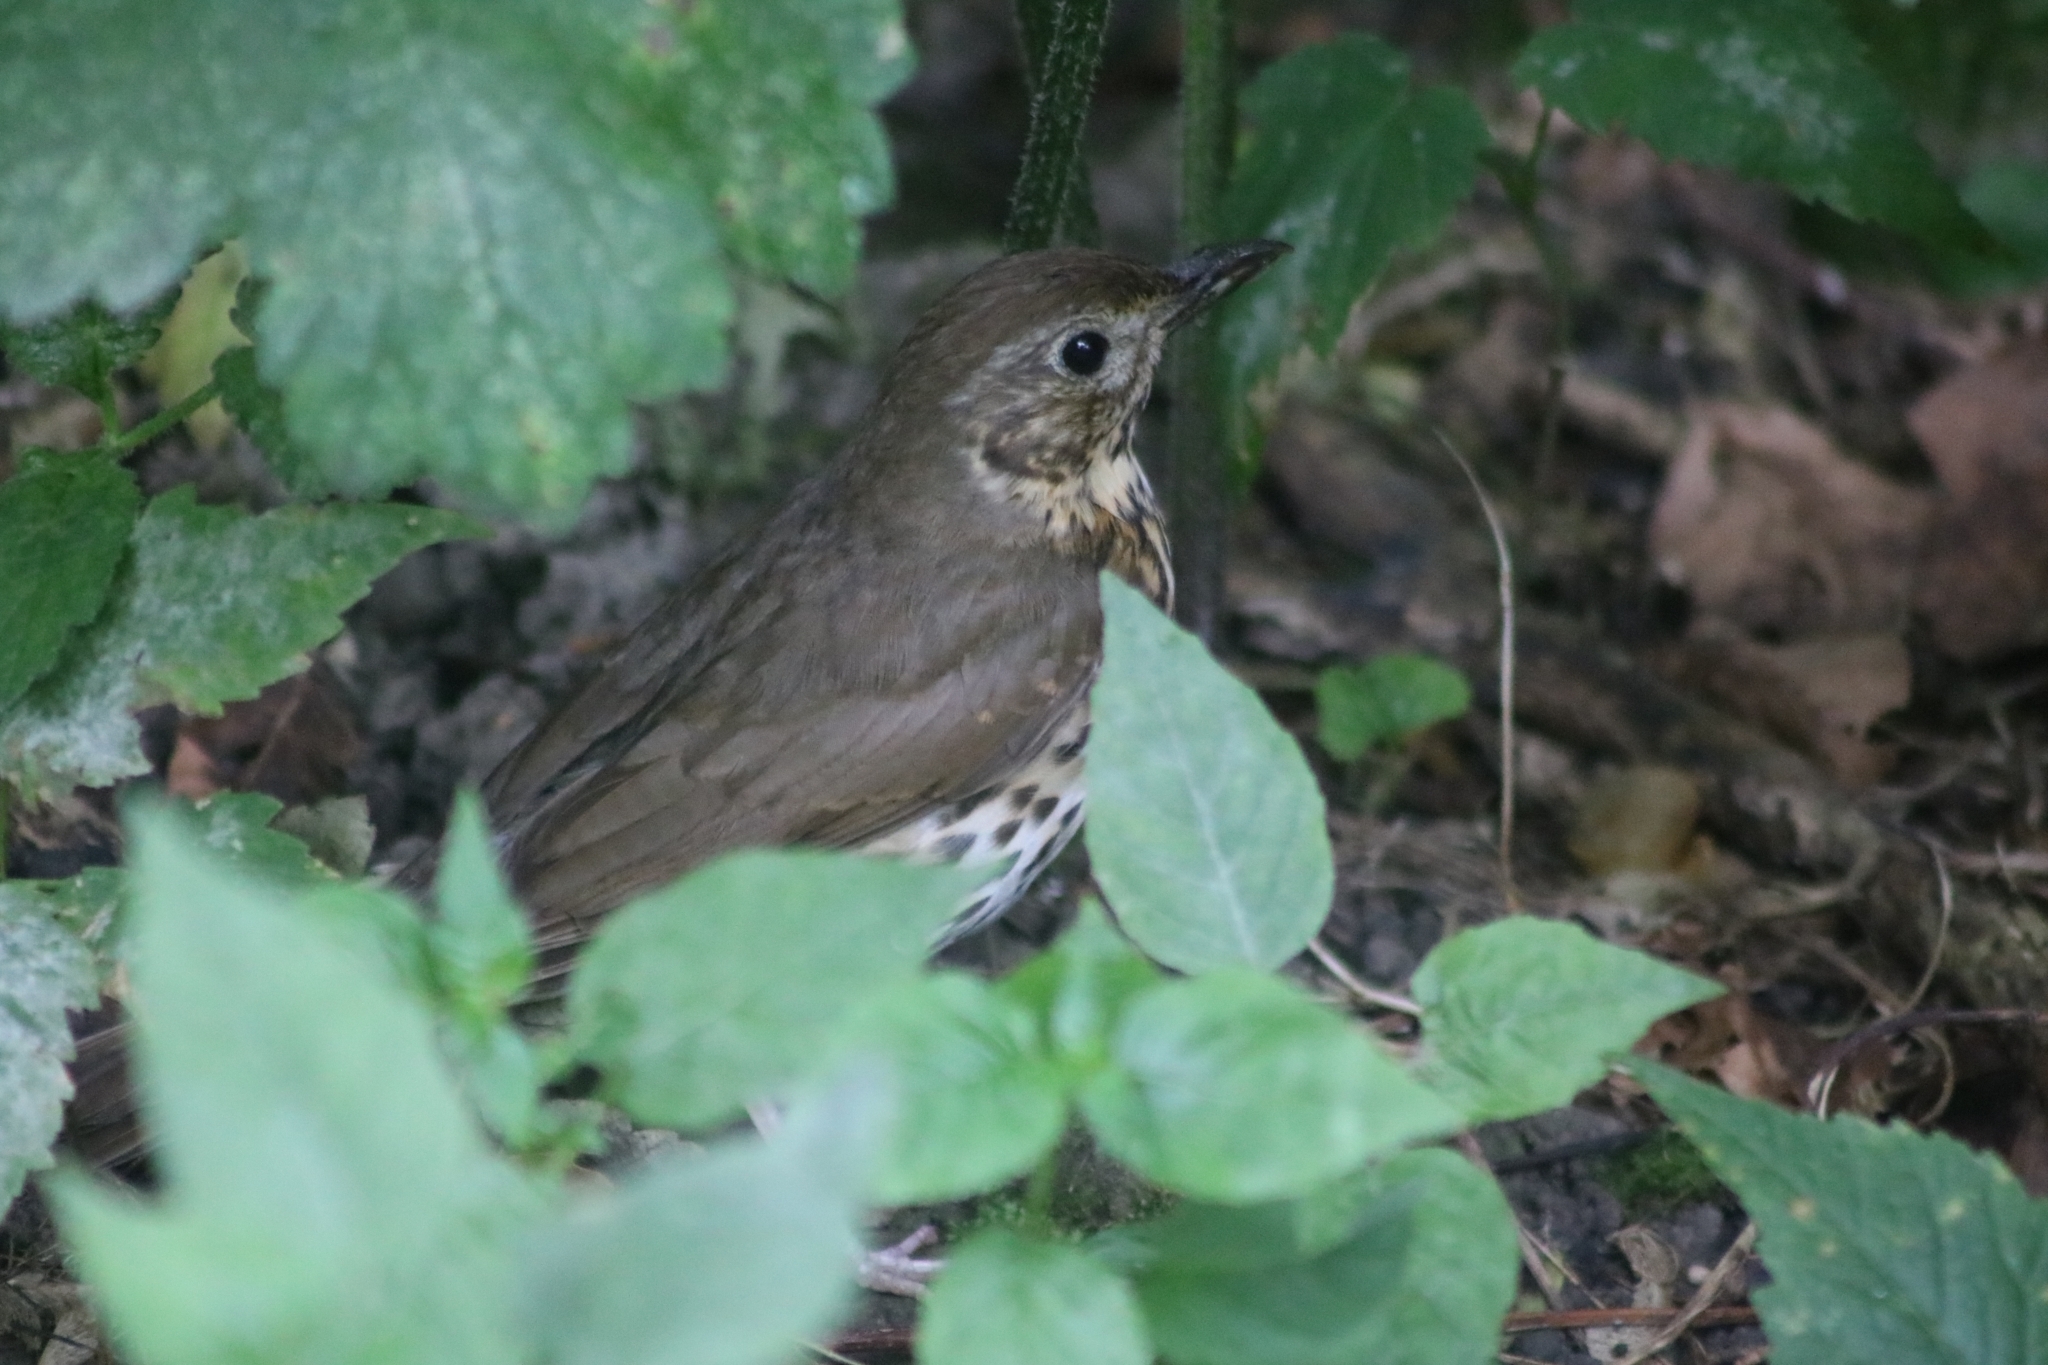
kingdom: Animalia
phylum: Chordata
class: Aves
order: Passeriformes
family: Turdidae
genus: Turdus
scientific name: Turdus philomelos
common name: Song thrush
